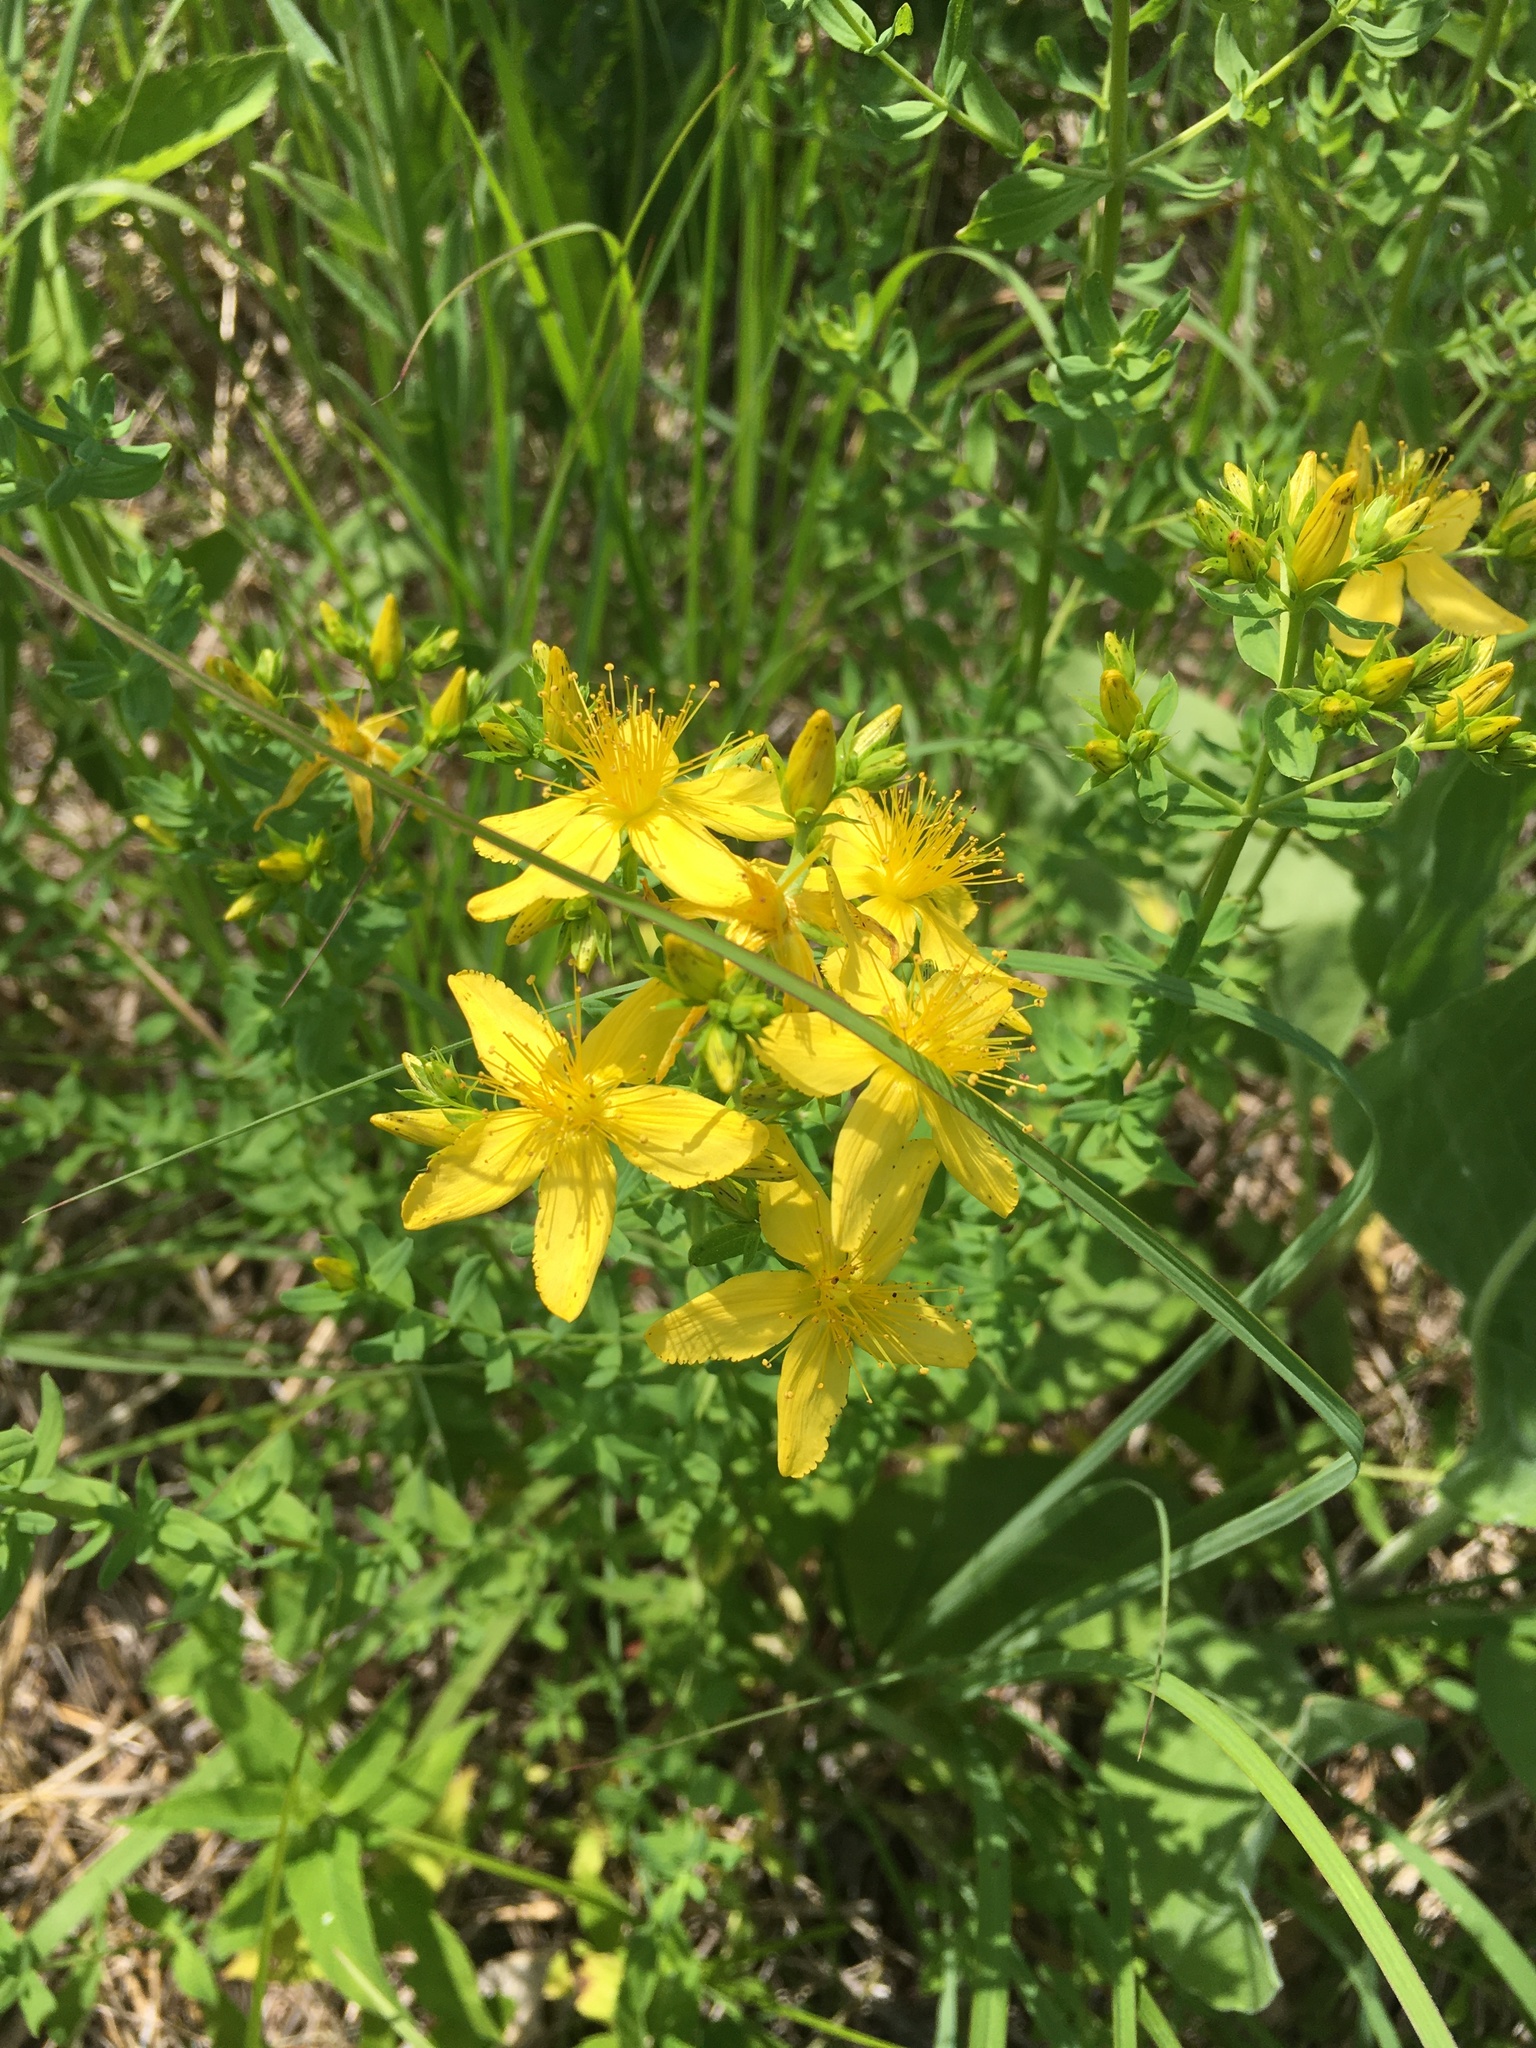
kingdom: Plantae
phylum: Tracheophyta
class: Magnoliopsida
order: Malpighiales
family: Hypericaceae
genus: Hypericum
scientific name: Hypericum perforatum
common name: Common st. johnswort
